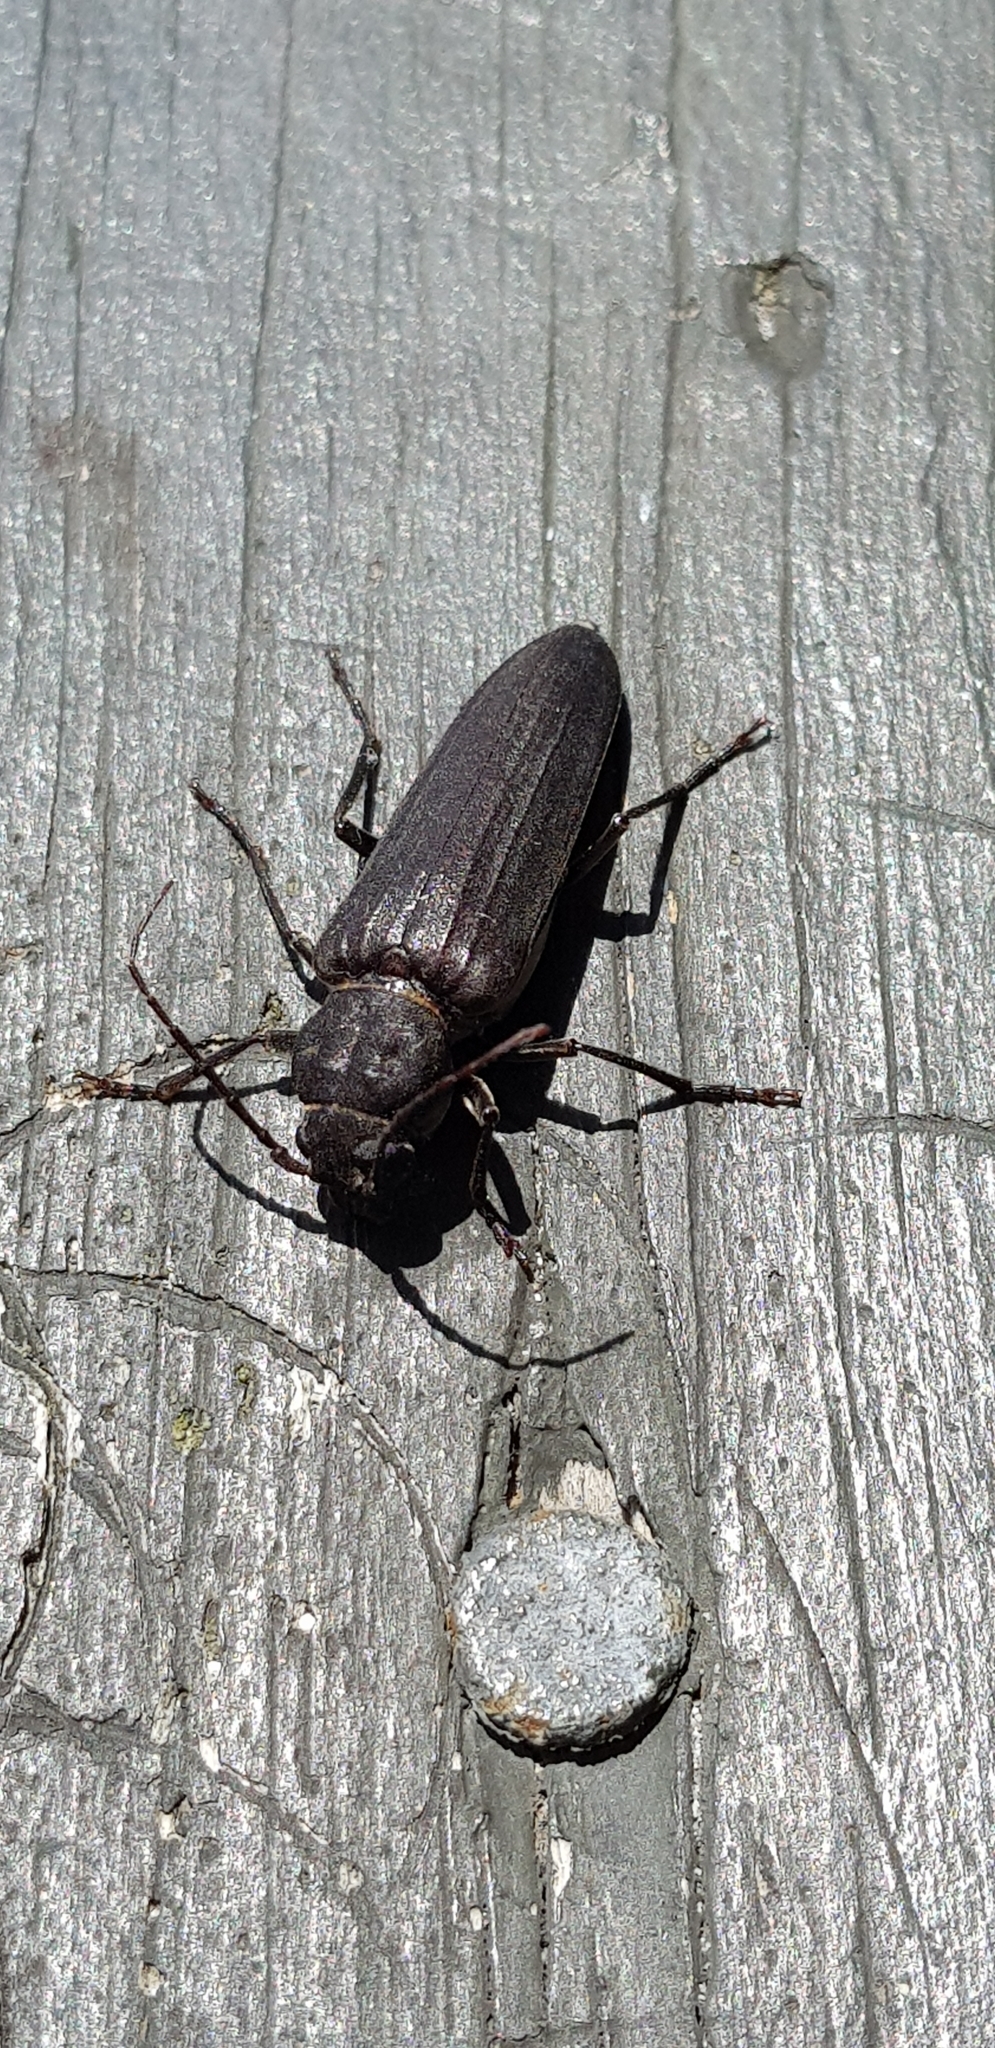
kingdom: Animalia
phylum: Arthropoda
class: Insecta
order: Coleoptera
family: Cerambycidae
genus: Arhopalus
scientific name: Arhopalus ferus
